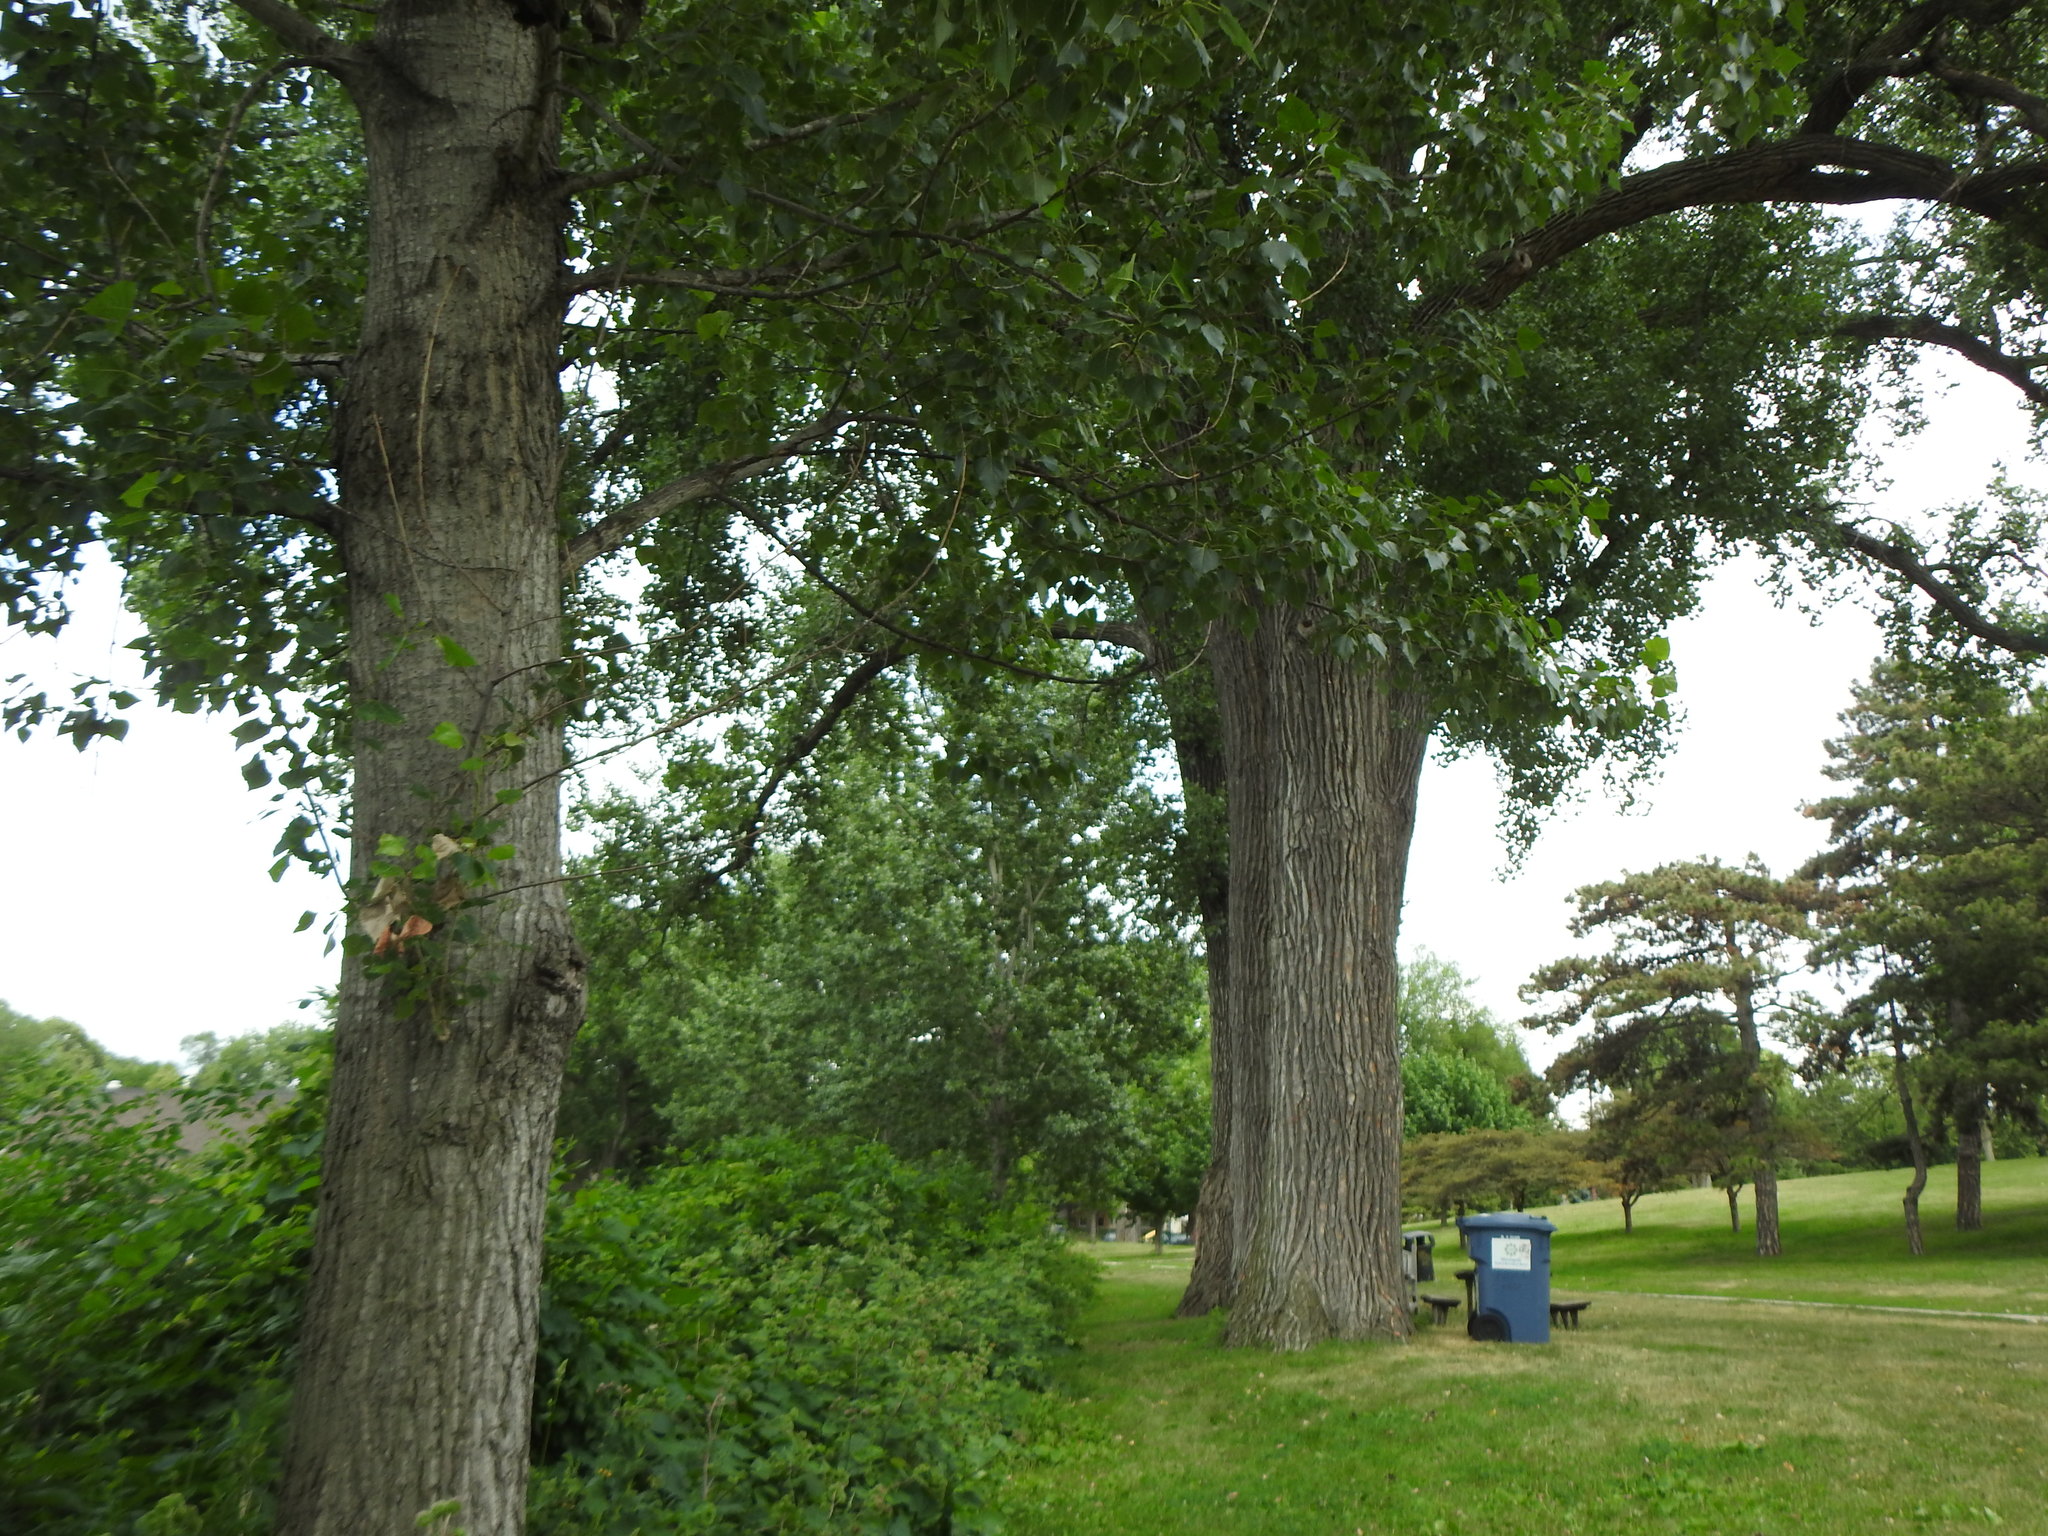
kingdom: Plantae
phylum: Tracheophyta
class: Magnoliopsida
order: Malpighiales
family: Salicaceae
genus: Populus
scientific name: Populus deltoides
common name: Eastern cottonwood
